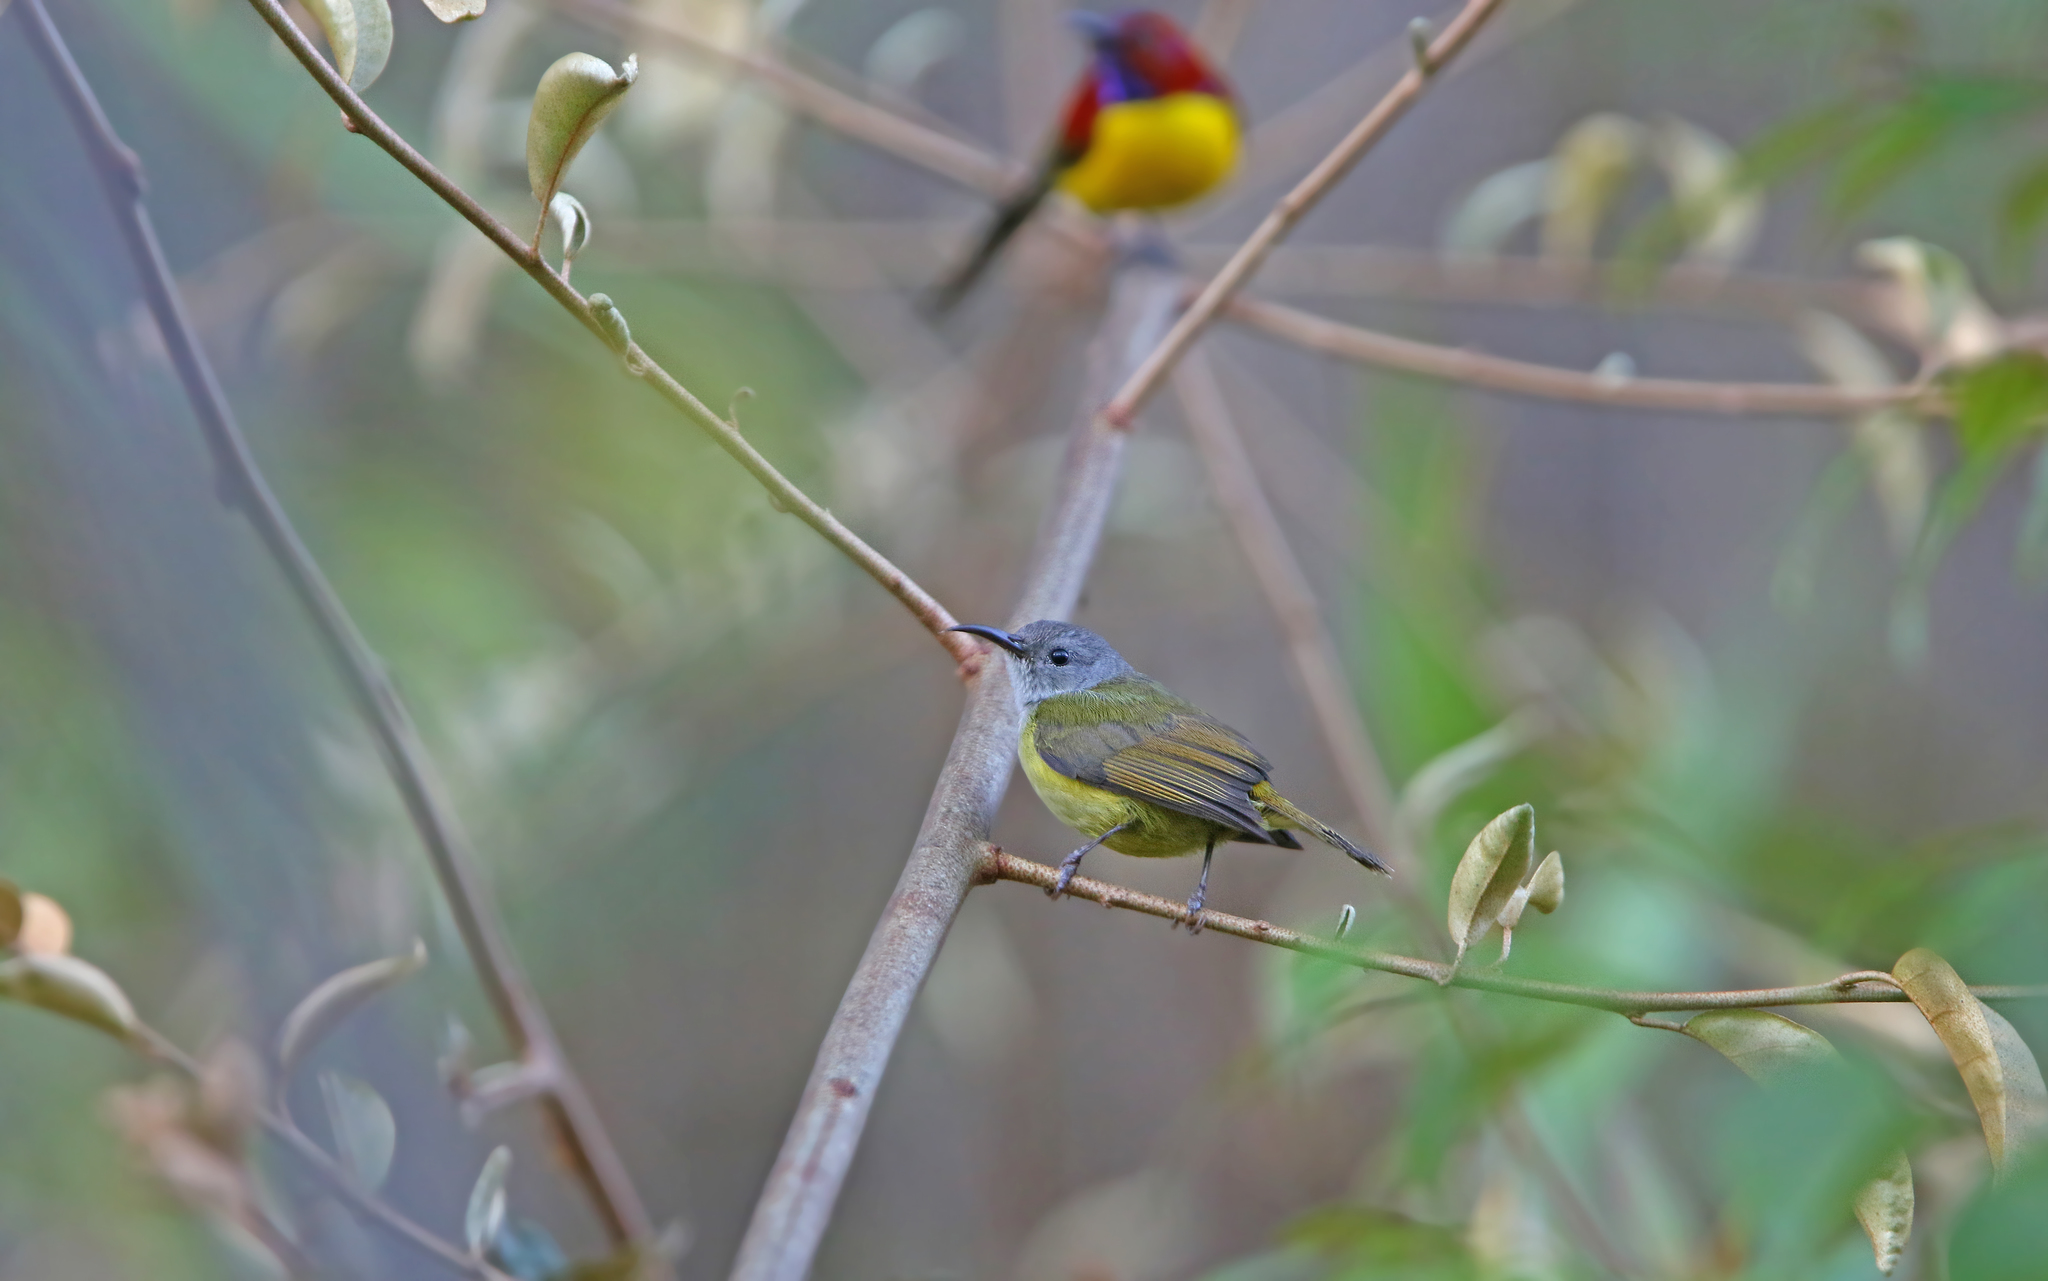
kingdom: Animalia
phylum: Chordata
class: Aves
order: Passeriformes
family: Nectariniidae
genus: Aethopyga
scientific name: Aethopyga gouldiae
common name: Mrs. gould's sunbird
